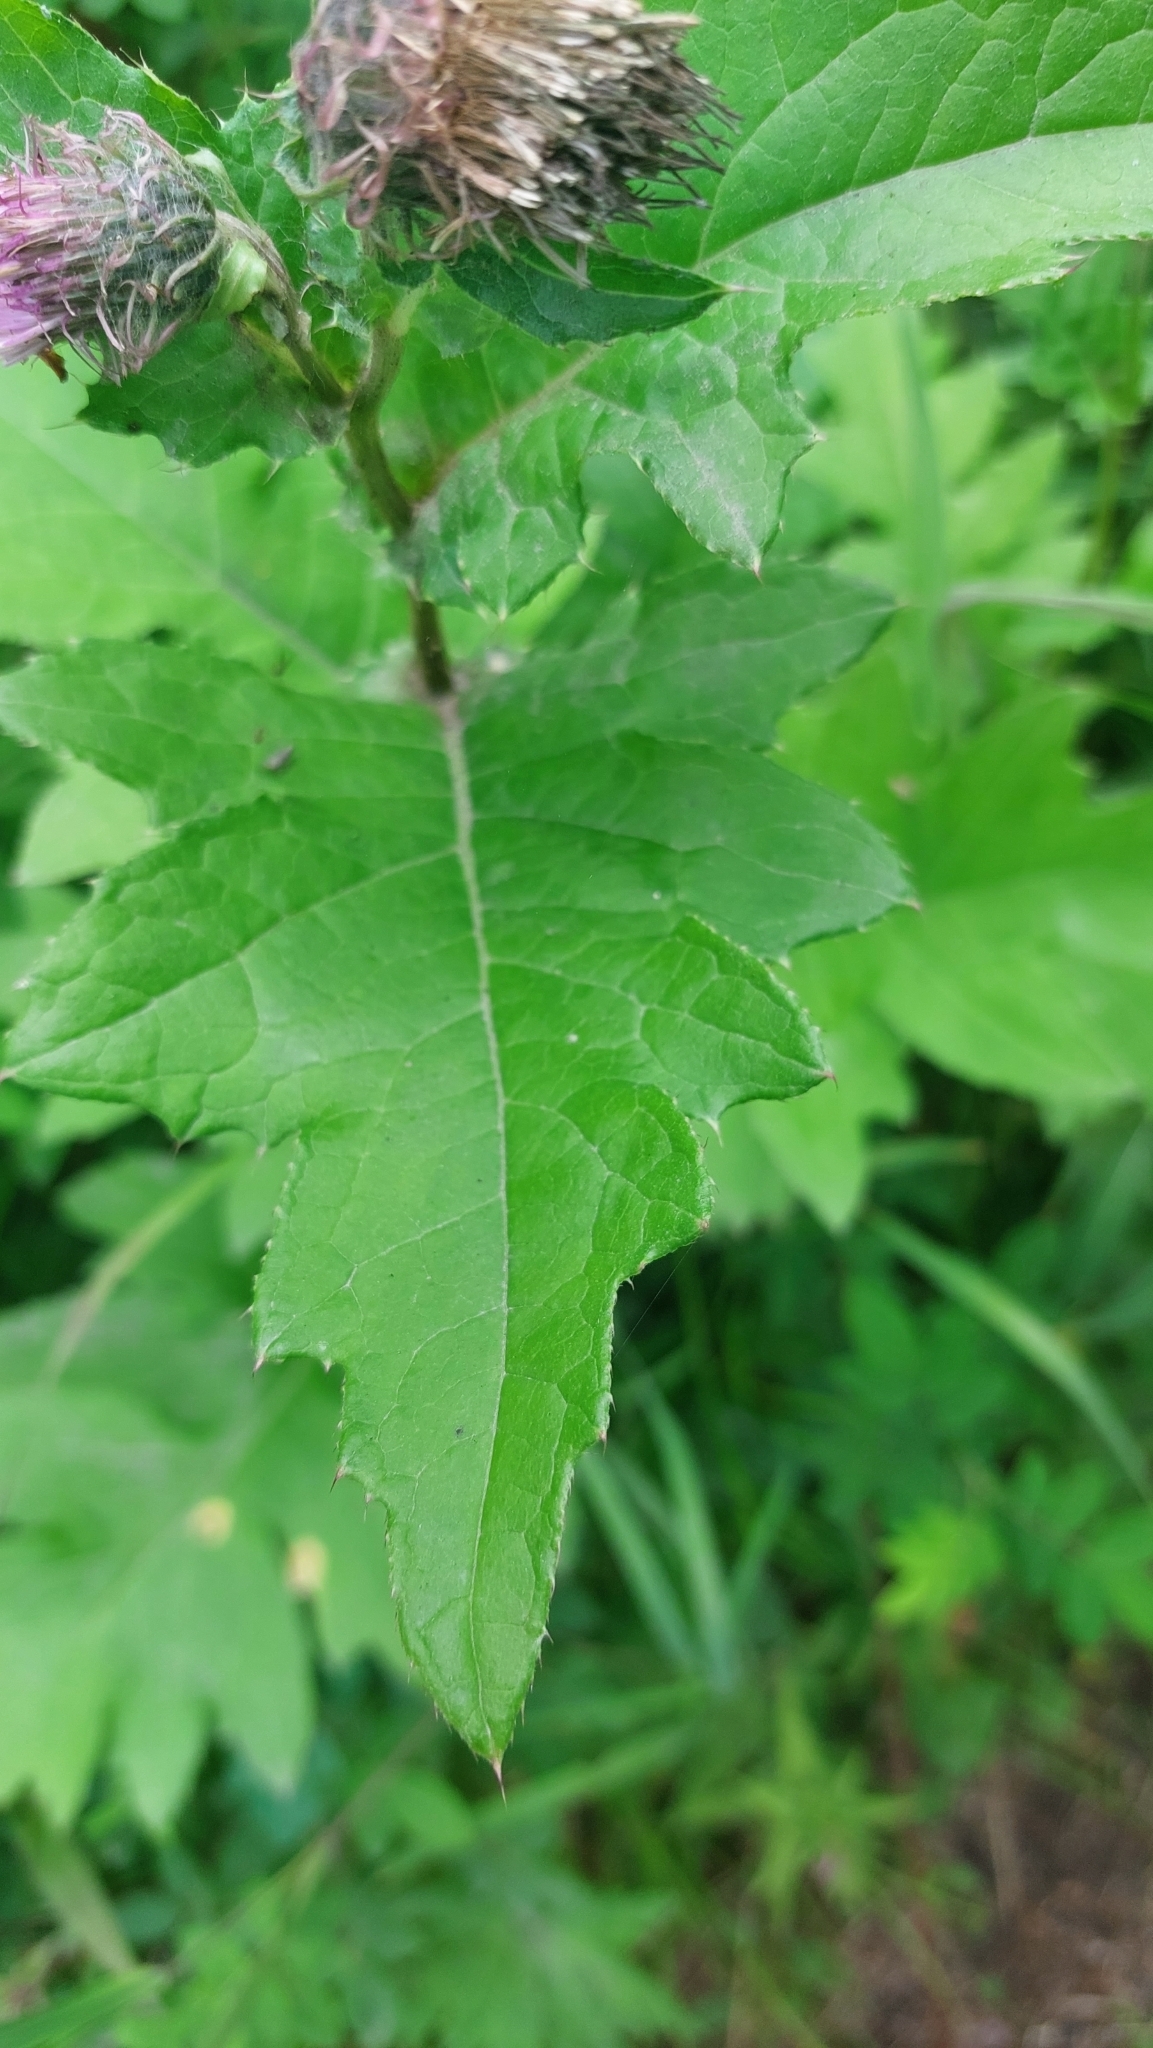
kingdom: Plantae
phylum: Tracheophyta
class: Magnoliopsida
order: Asterales
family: Asteraceae
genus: Cirsium
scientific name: Cirsium kamtschaticum
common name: Kamchatka thistle
